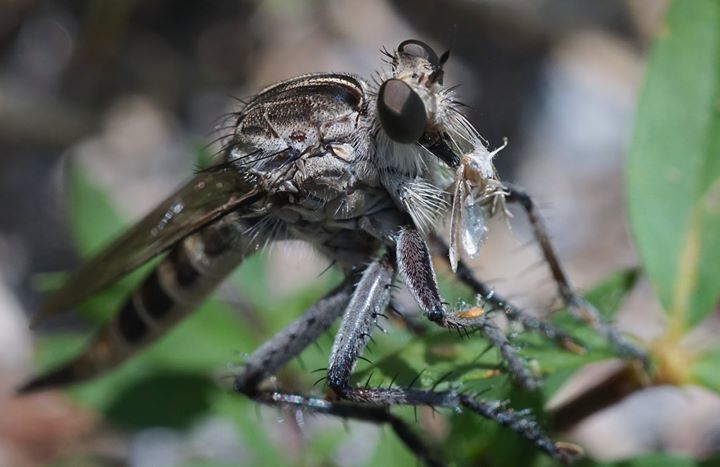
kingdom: Animalia
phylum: Arthropoda
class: Insecta
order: Diptera
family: Asilidae
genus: Triorla
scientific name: Triorla interrupta
